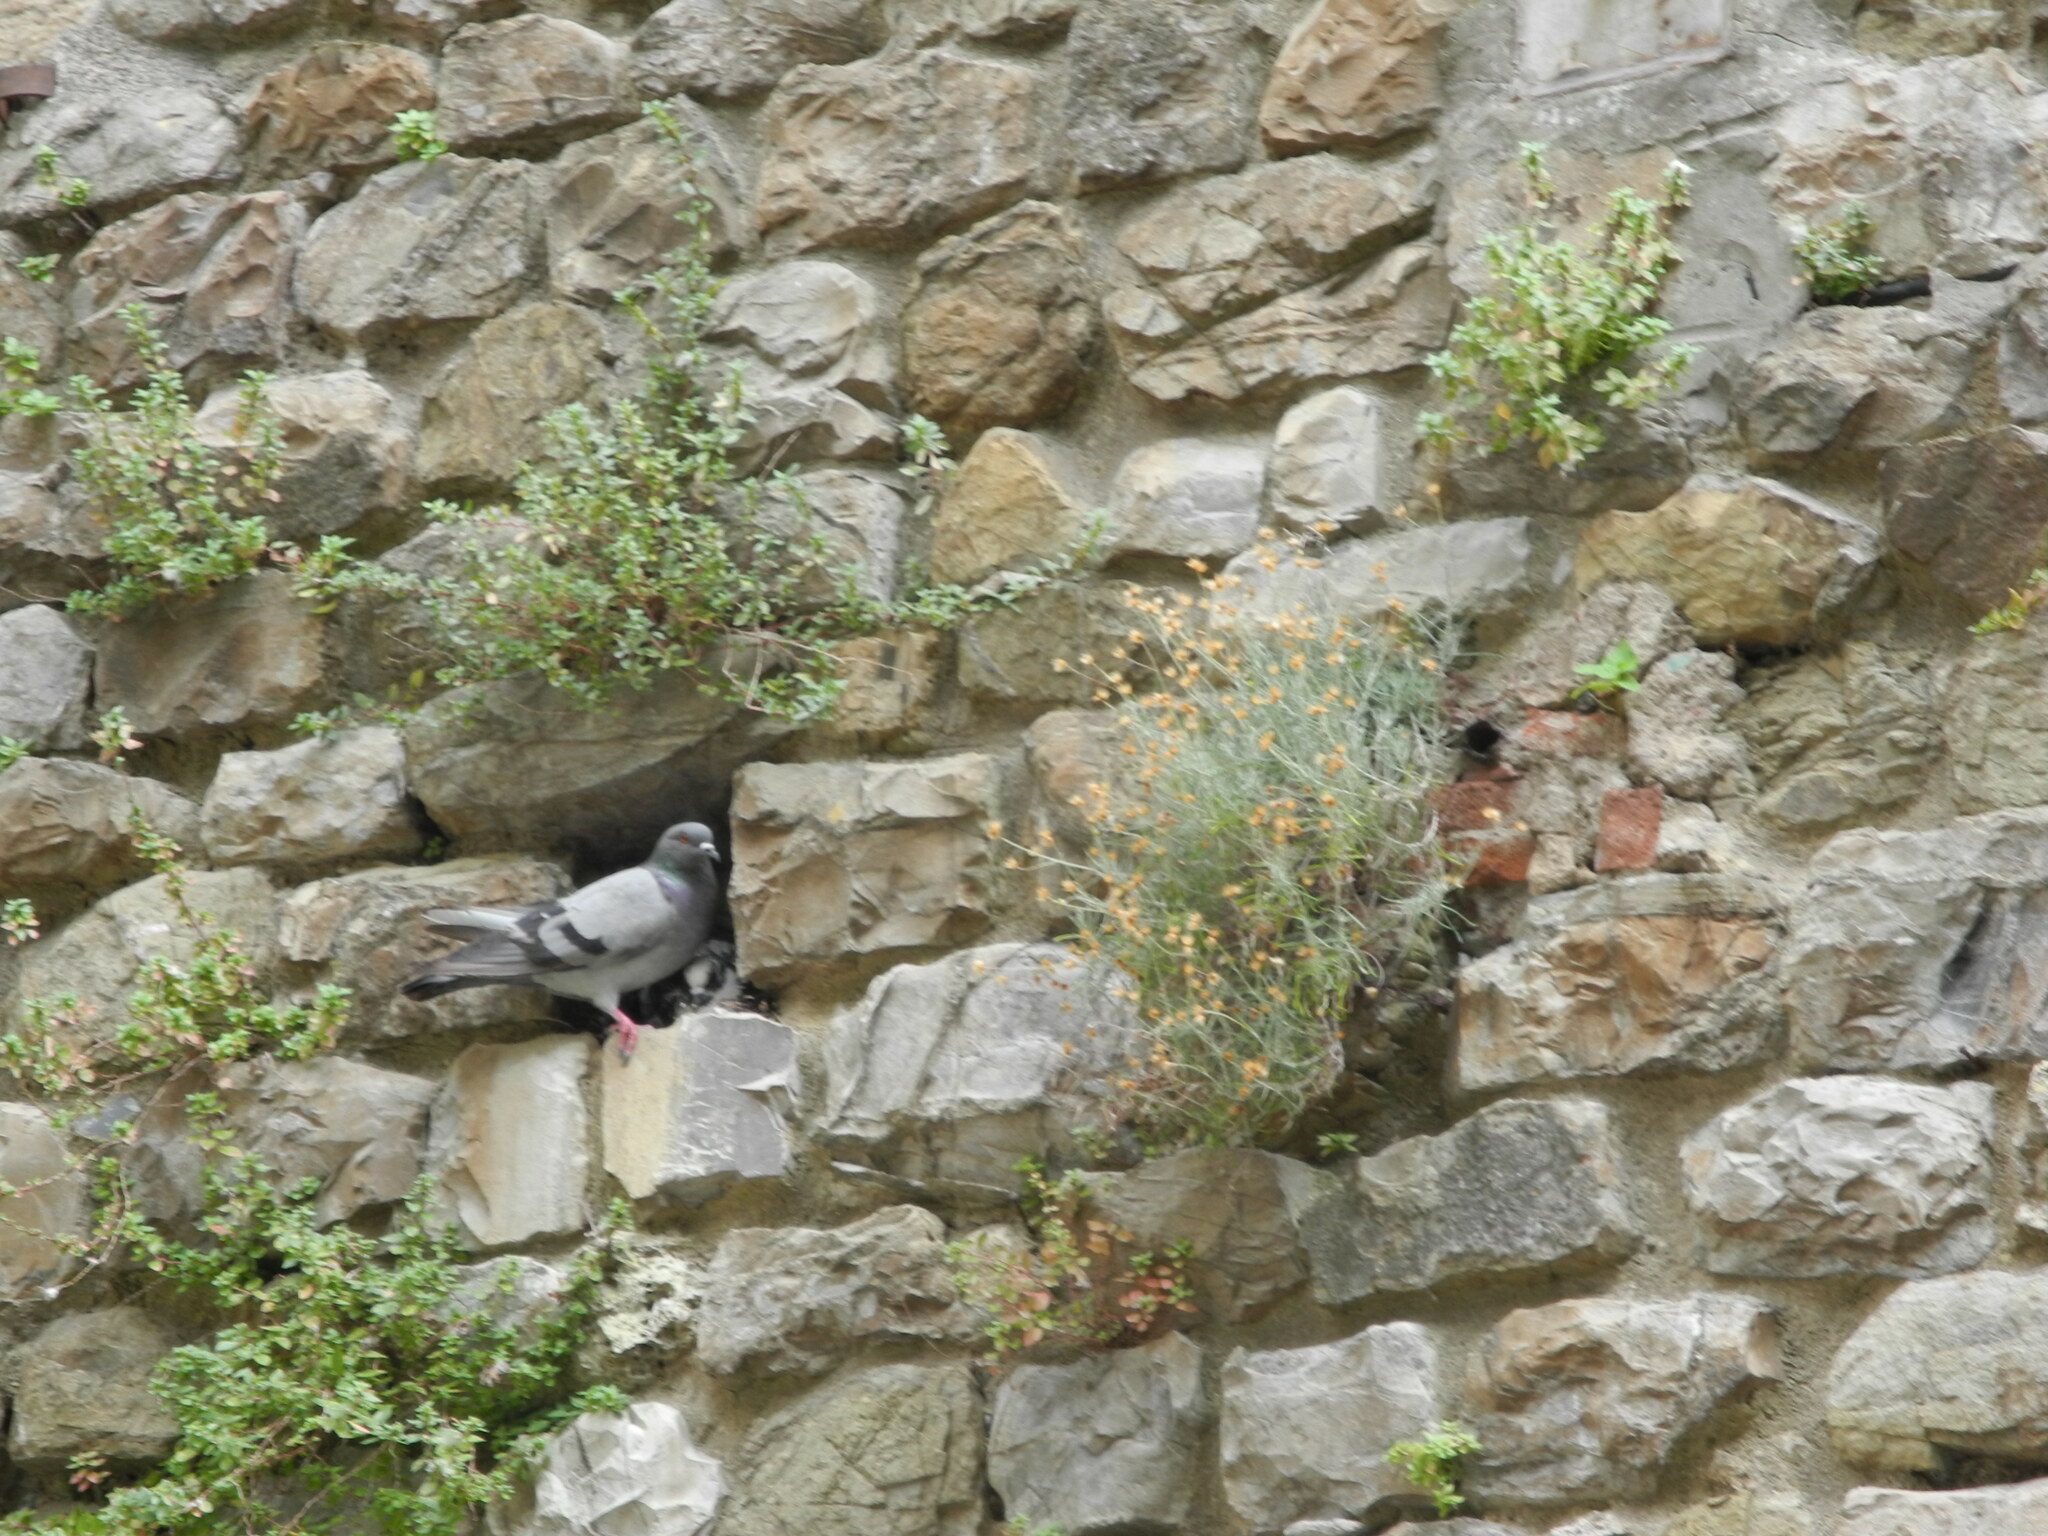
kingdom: Animalia
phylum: Chordata
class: Aves
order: Columbiformes
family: Columbidae
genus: Columba
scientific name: Columba livia
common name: Rock pigeon
